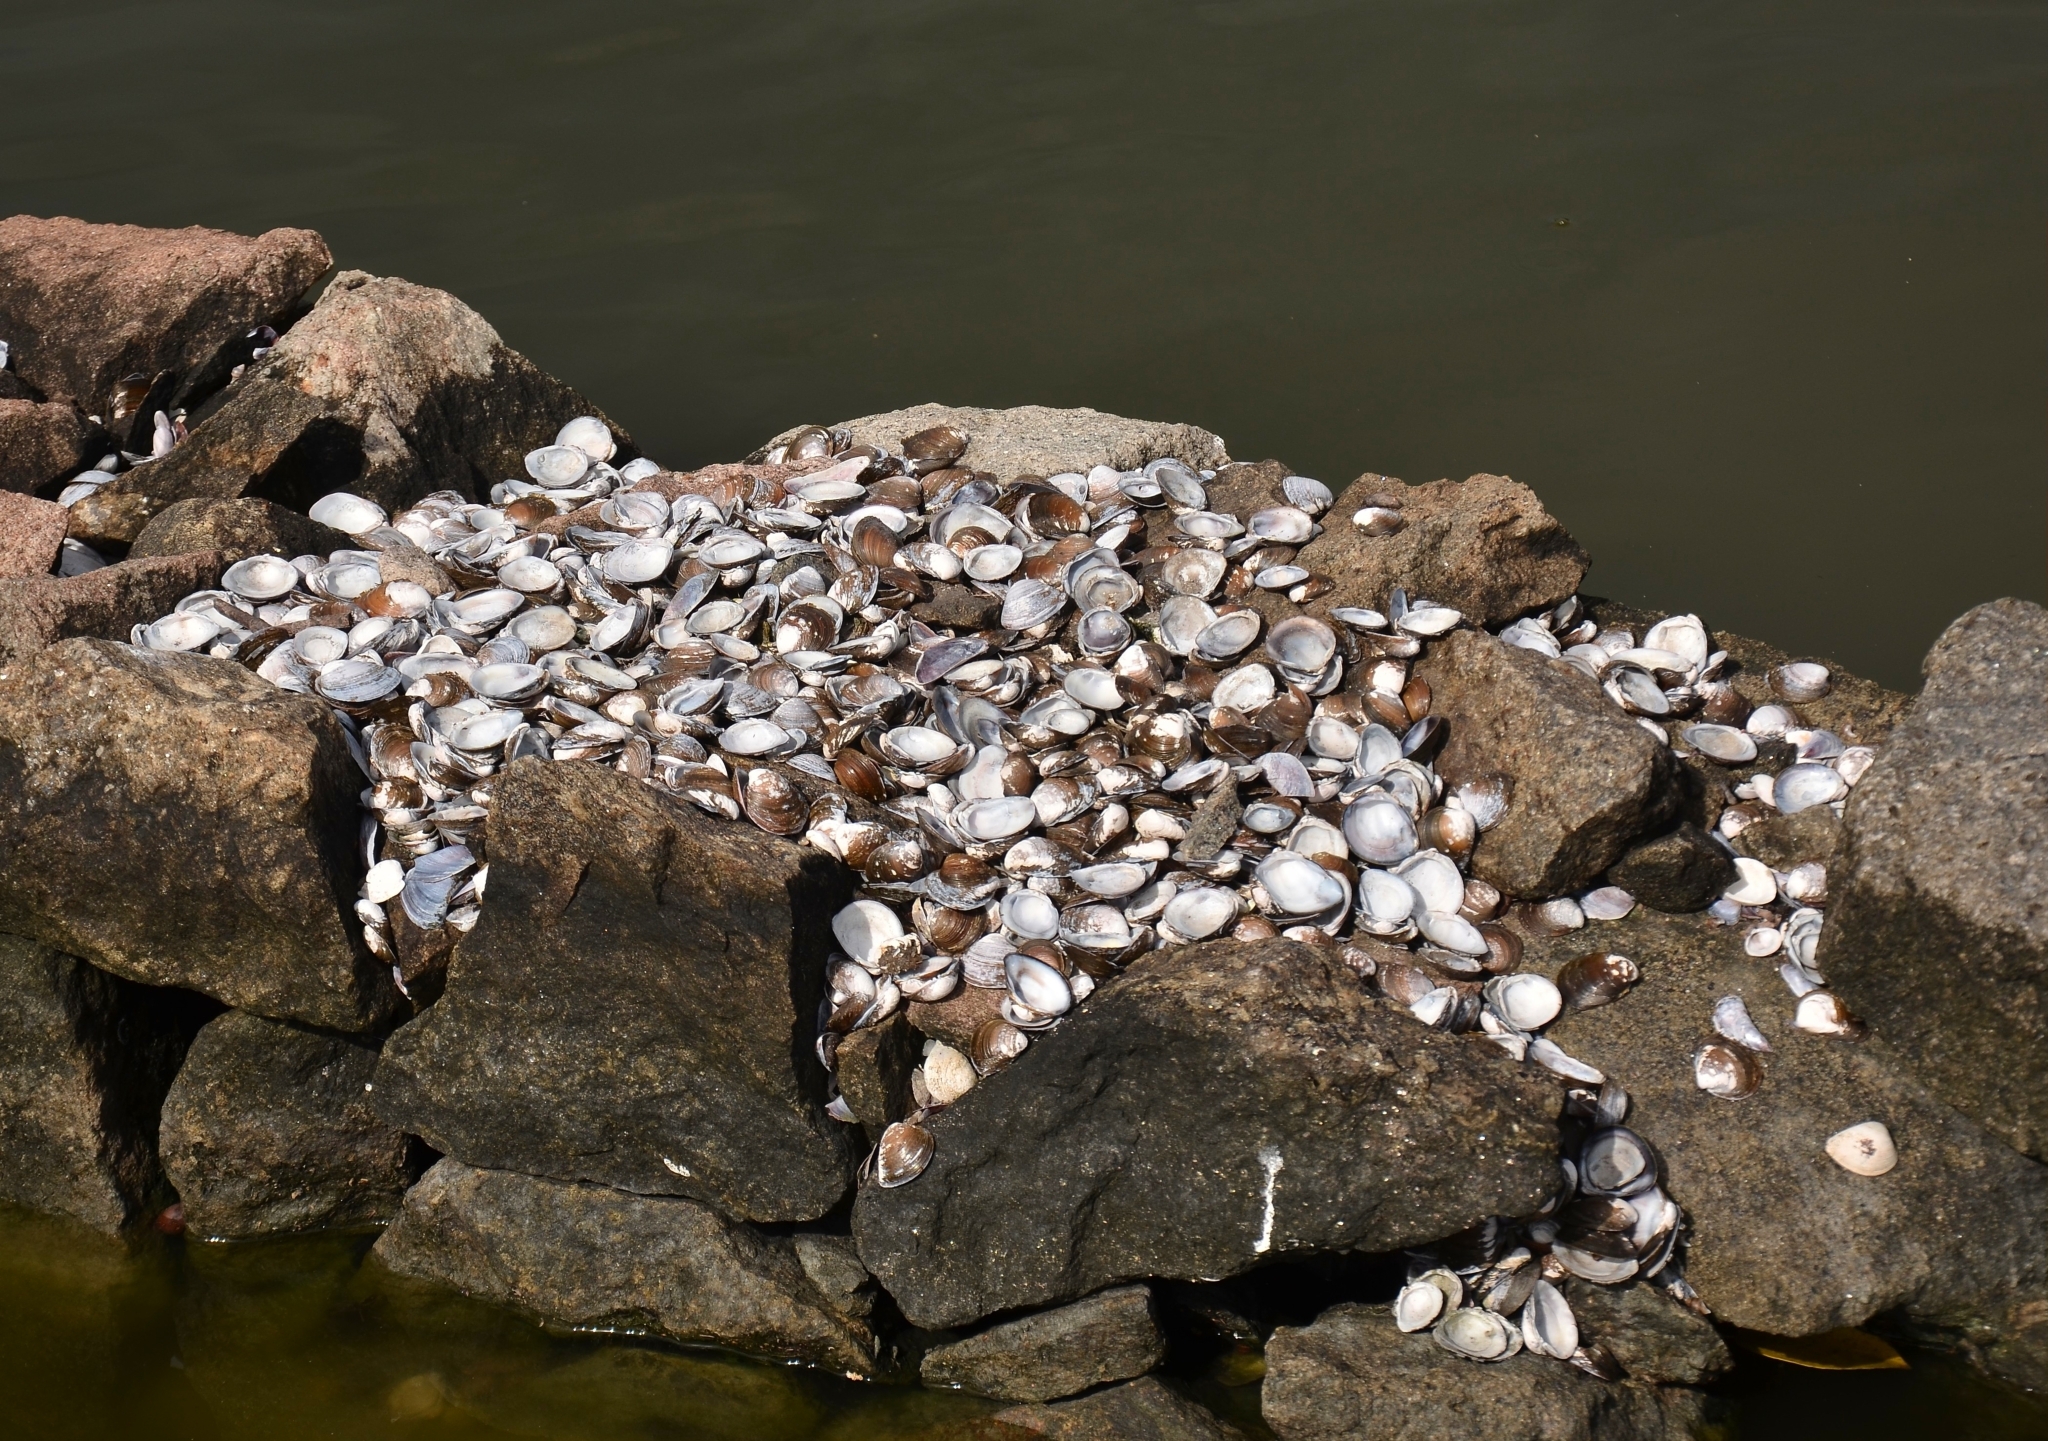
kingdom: Animalia
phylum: Mollusca
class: Bivalvia
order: Venerida
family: Cyrenidae
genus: Villorita
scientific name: Villorita cyprinoides
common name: Black clam
